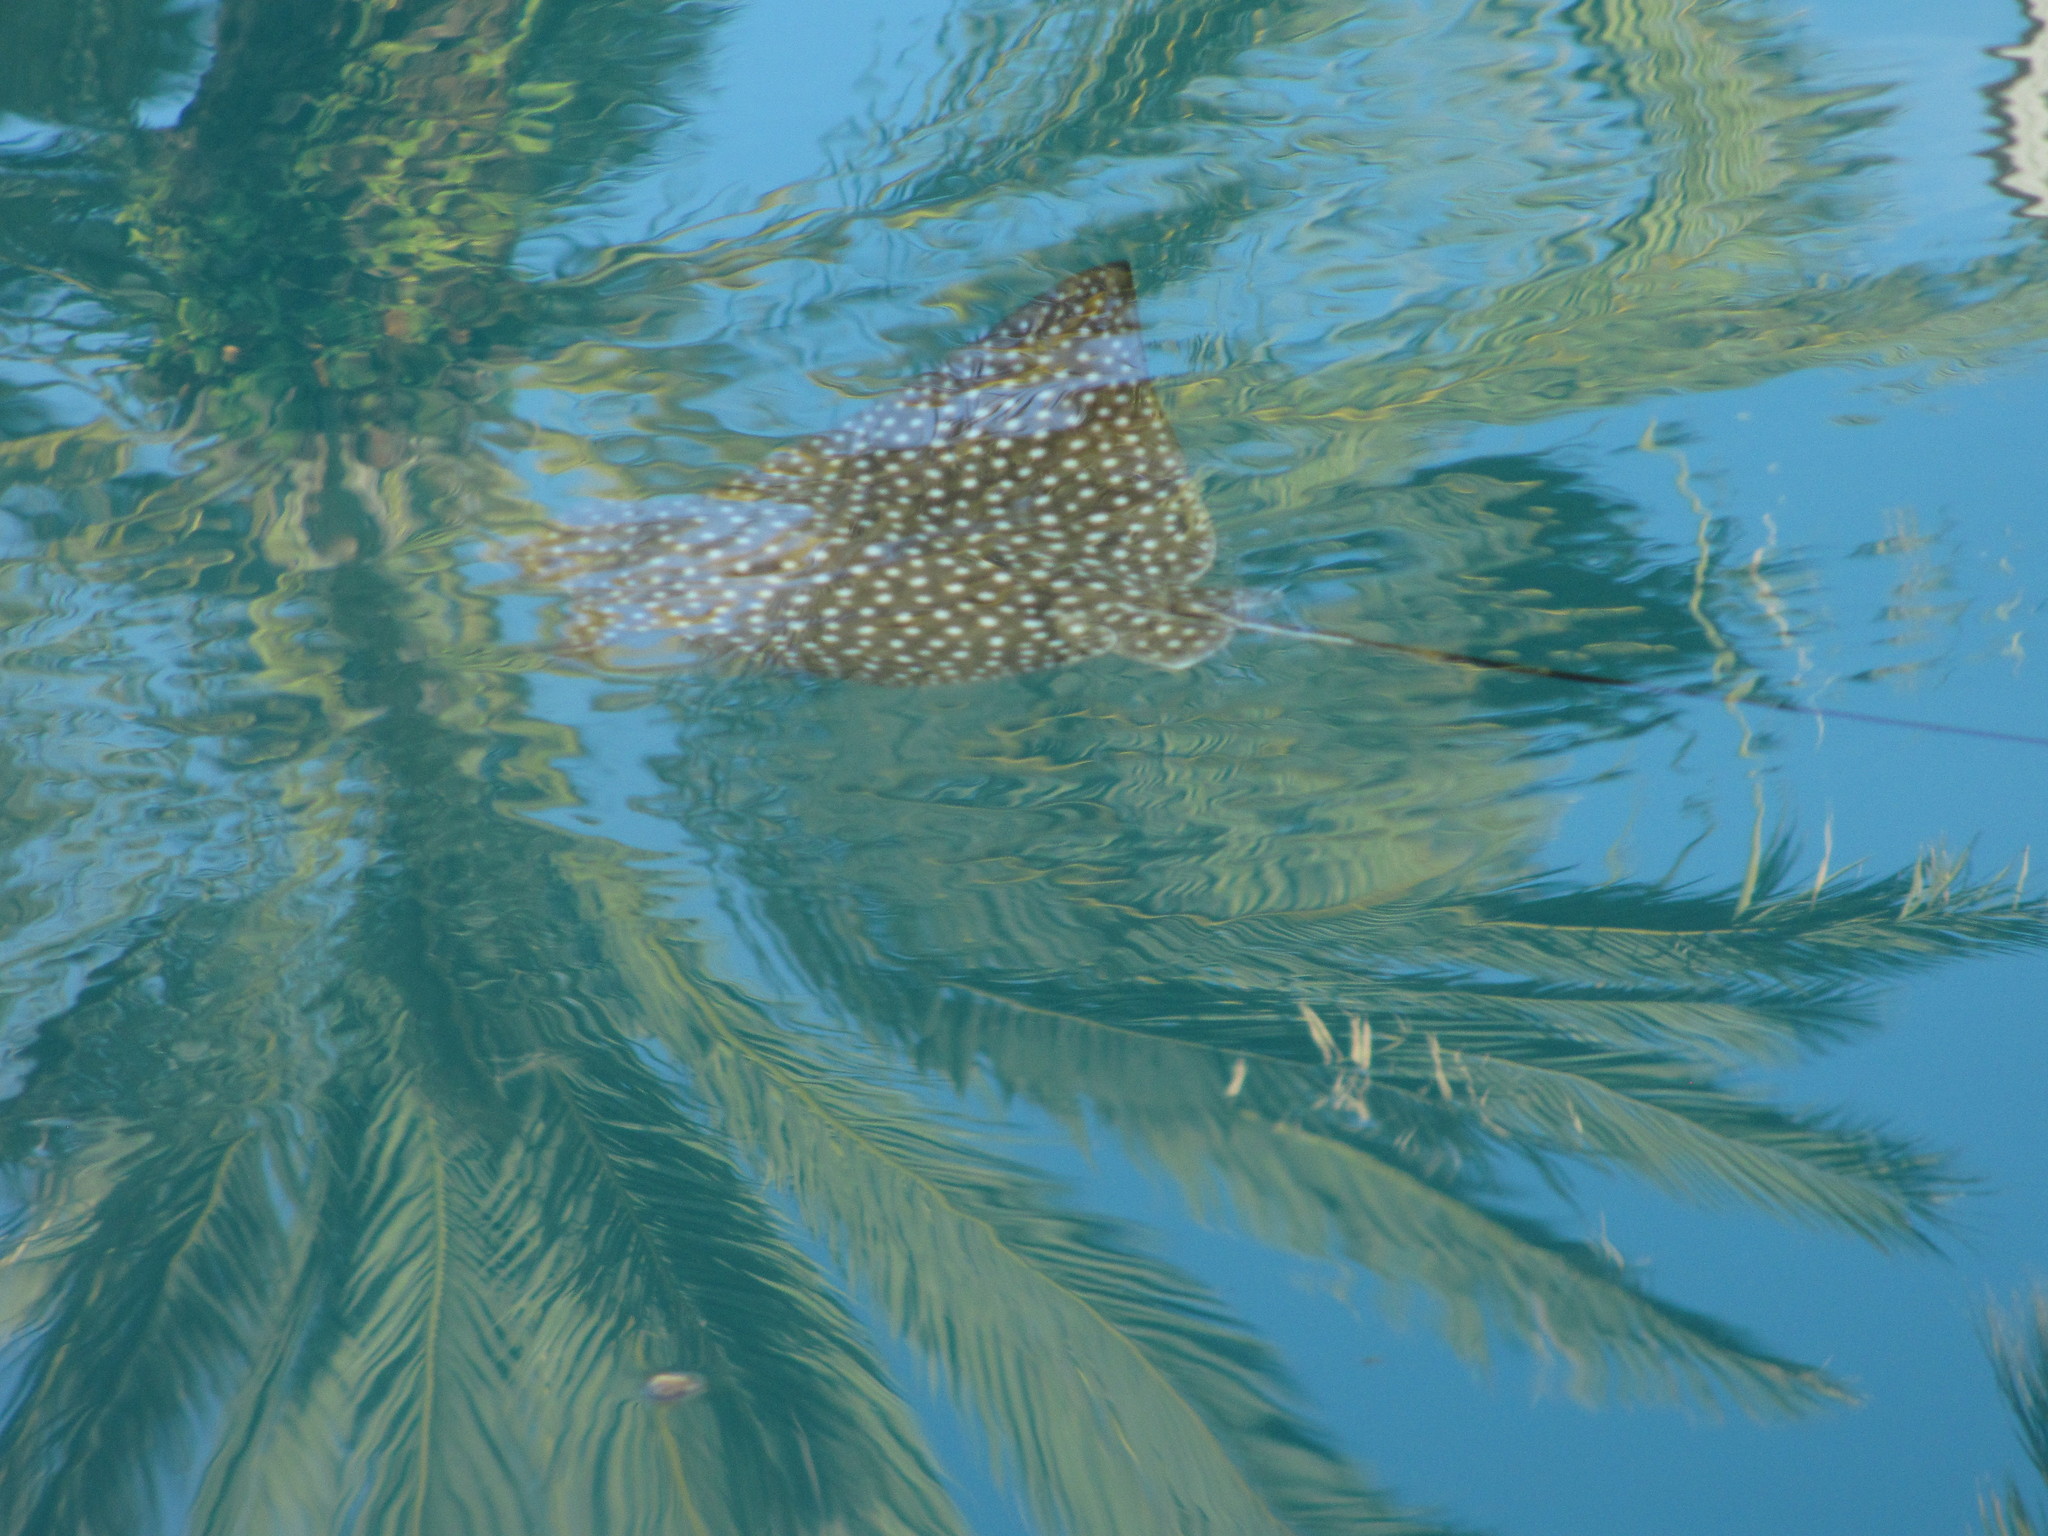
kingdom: Animalia
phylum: Chordata
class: Elasmobranchii
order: Myliobatiformes
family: Myliobatidae
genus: Aetobatus
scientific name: Aetobatus narinari
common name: Spotted eagle ray
